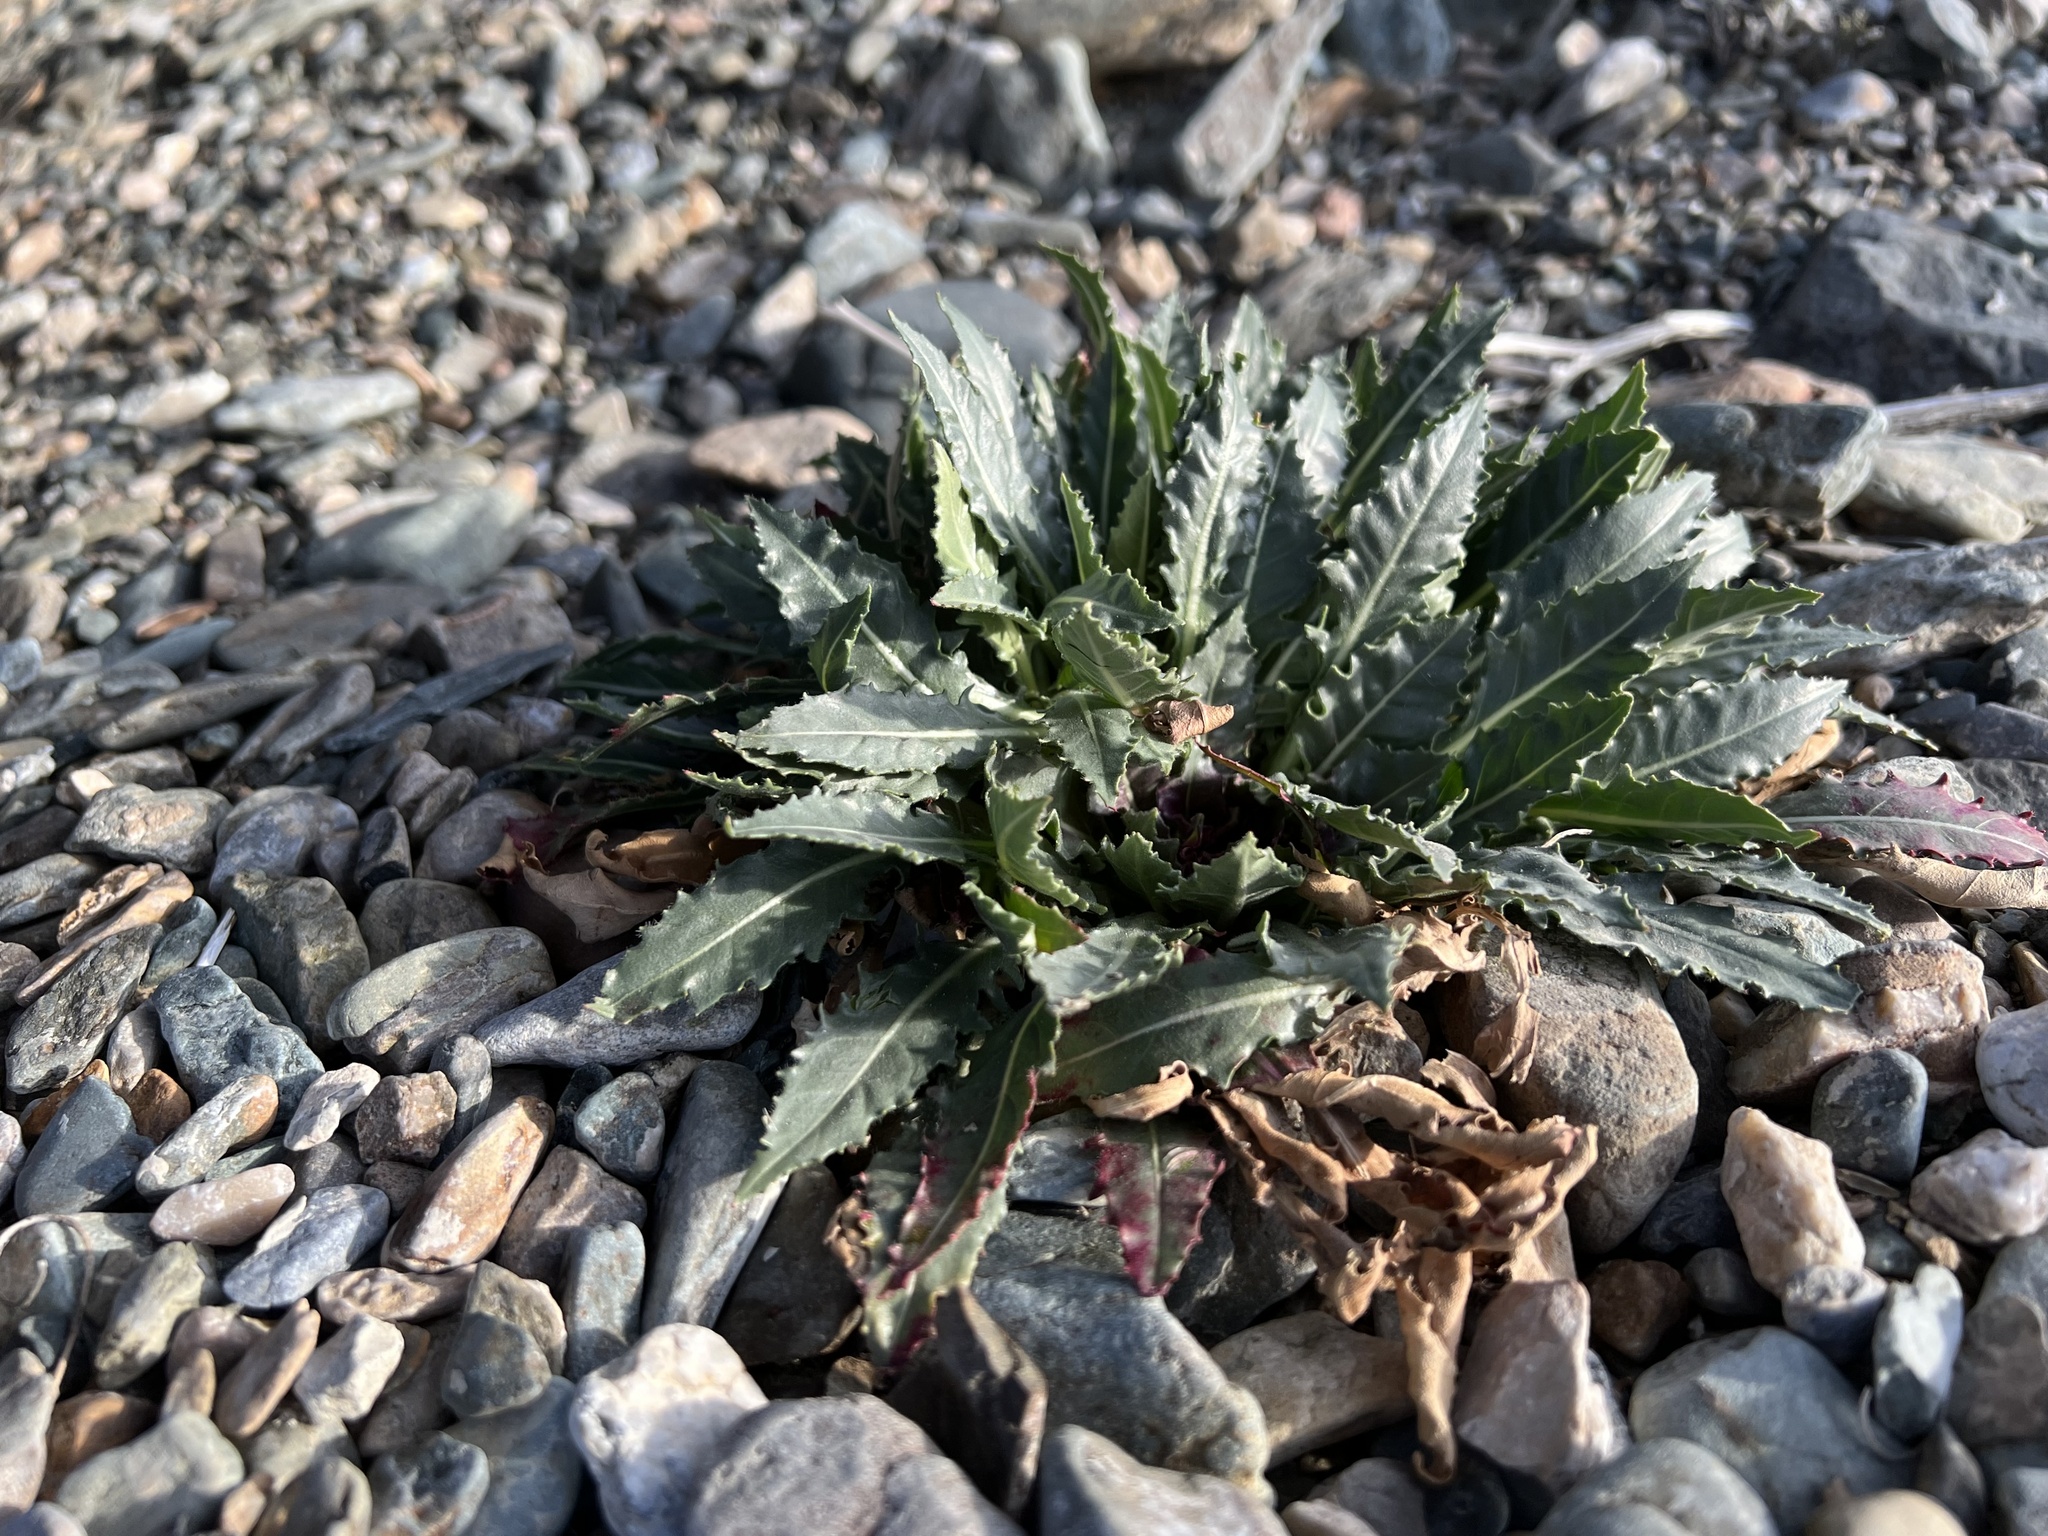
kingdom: Plantae
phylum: Tracheophyta
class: Magnoliopsida
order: Myrtales
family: Onagraceae
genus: Oenothera
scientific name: Oenothera cespitosa
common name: Tufted evening-primrose
